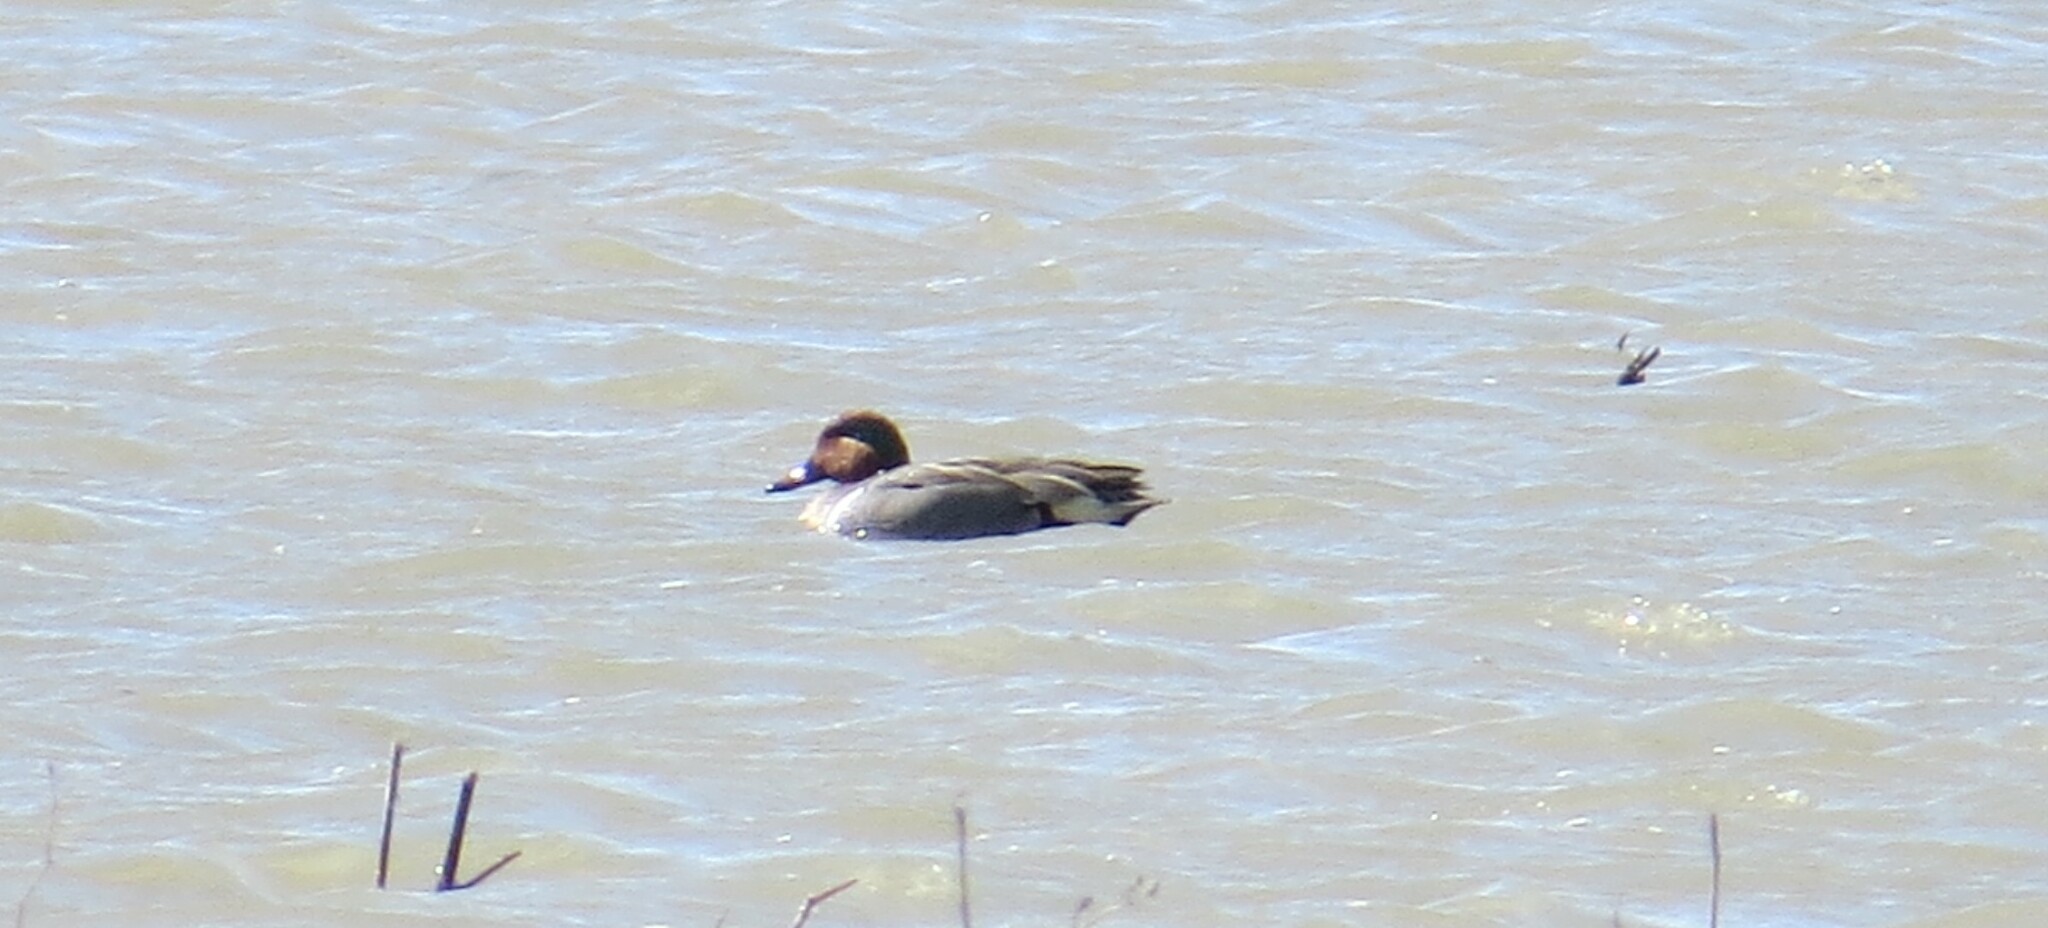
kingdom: Animalia
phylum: Chordata
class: Aves
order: Anseriformes
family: Anatidae
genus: Anas
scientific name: Anas crecca
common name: Eurasian teal
